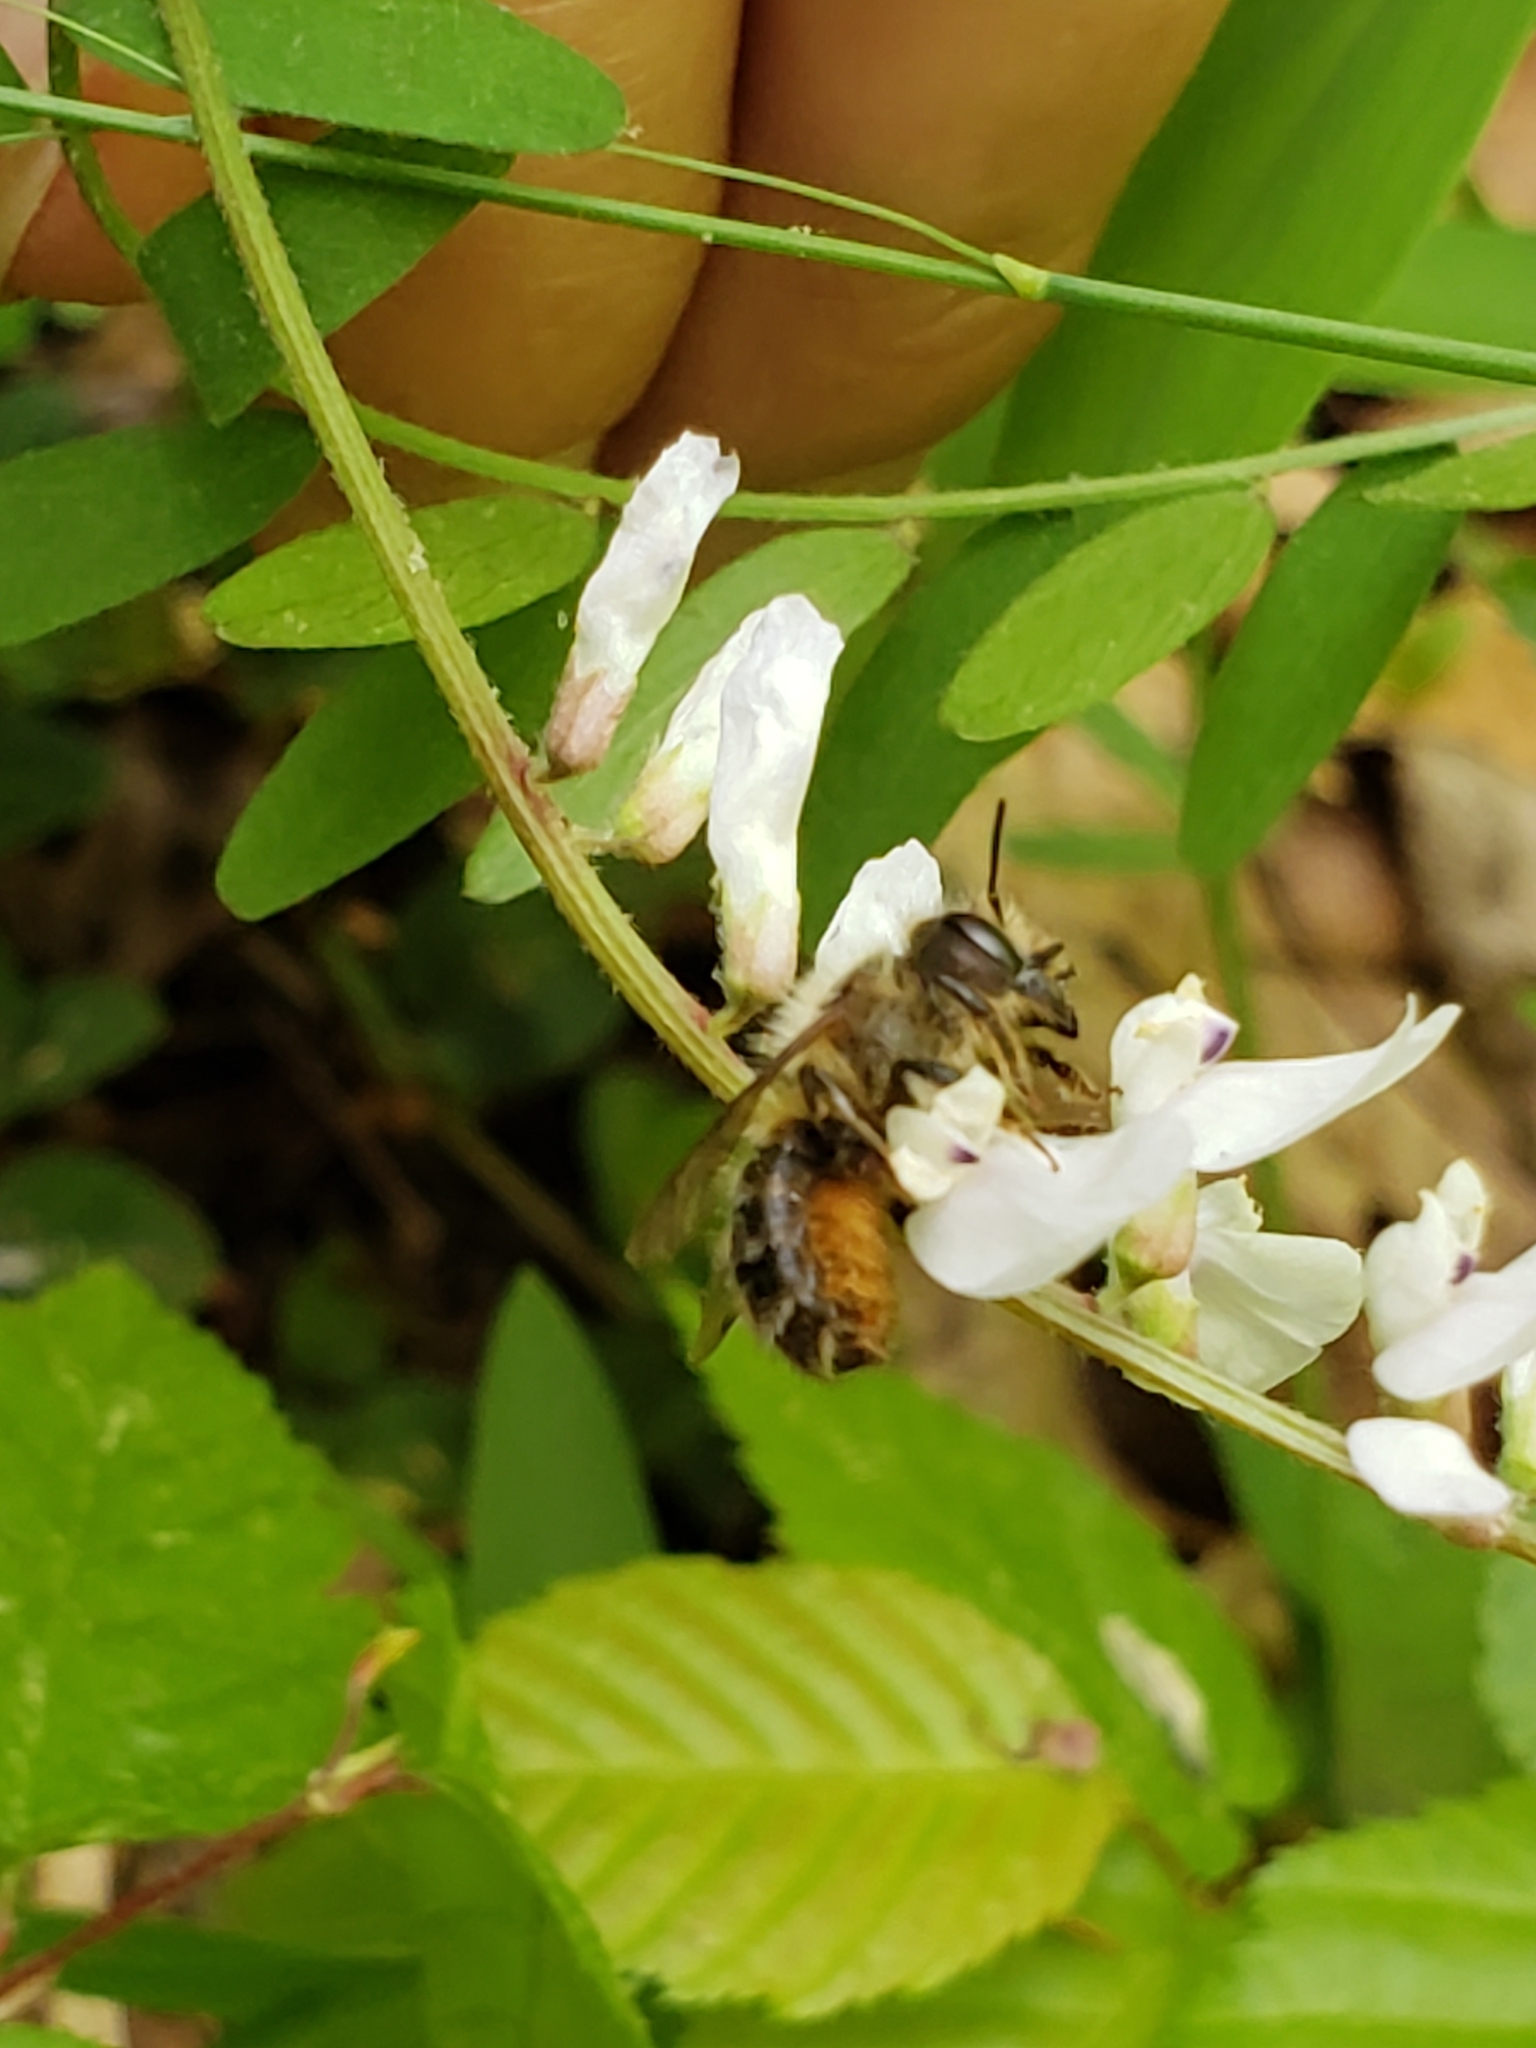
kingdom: Plantae
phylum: Tracheophyta
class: Magnoliopsida
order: Fabales
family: Fabaceae
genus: Vicia
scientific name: Vicia caroliniana
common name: Carolina vetch
